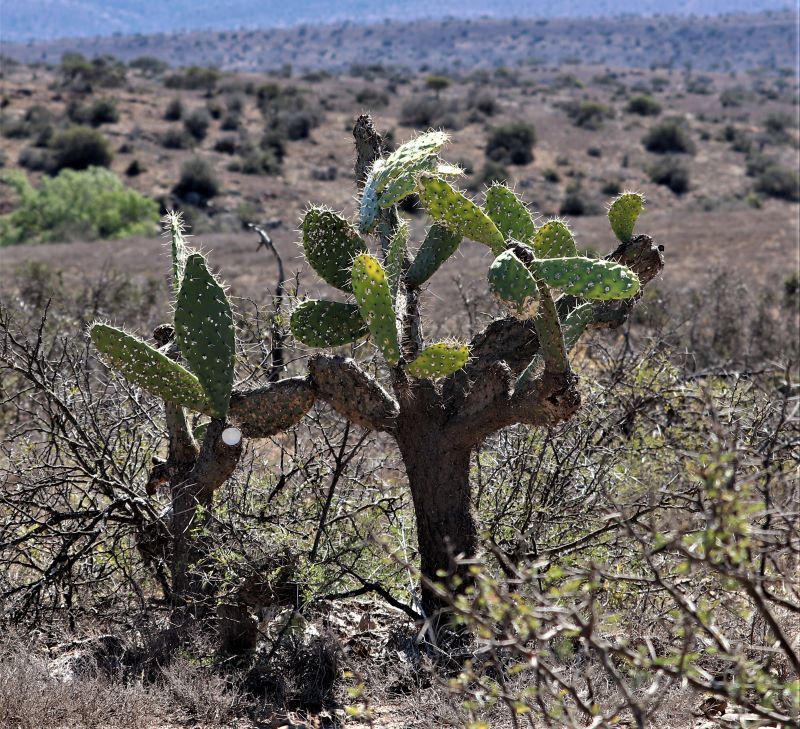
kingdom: Plantae
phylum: Tracheophyta
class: Magnoliopsida
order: Caryophyllales
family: Cactaceae
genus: Opuntia
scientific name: Opuntia ficus-indica
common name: Barbary fig
